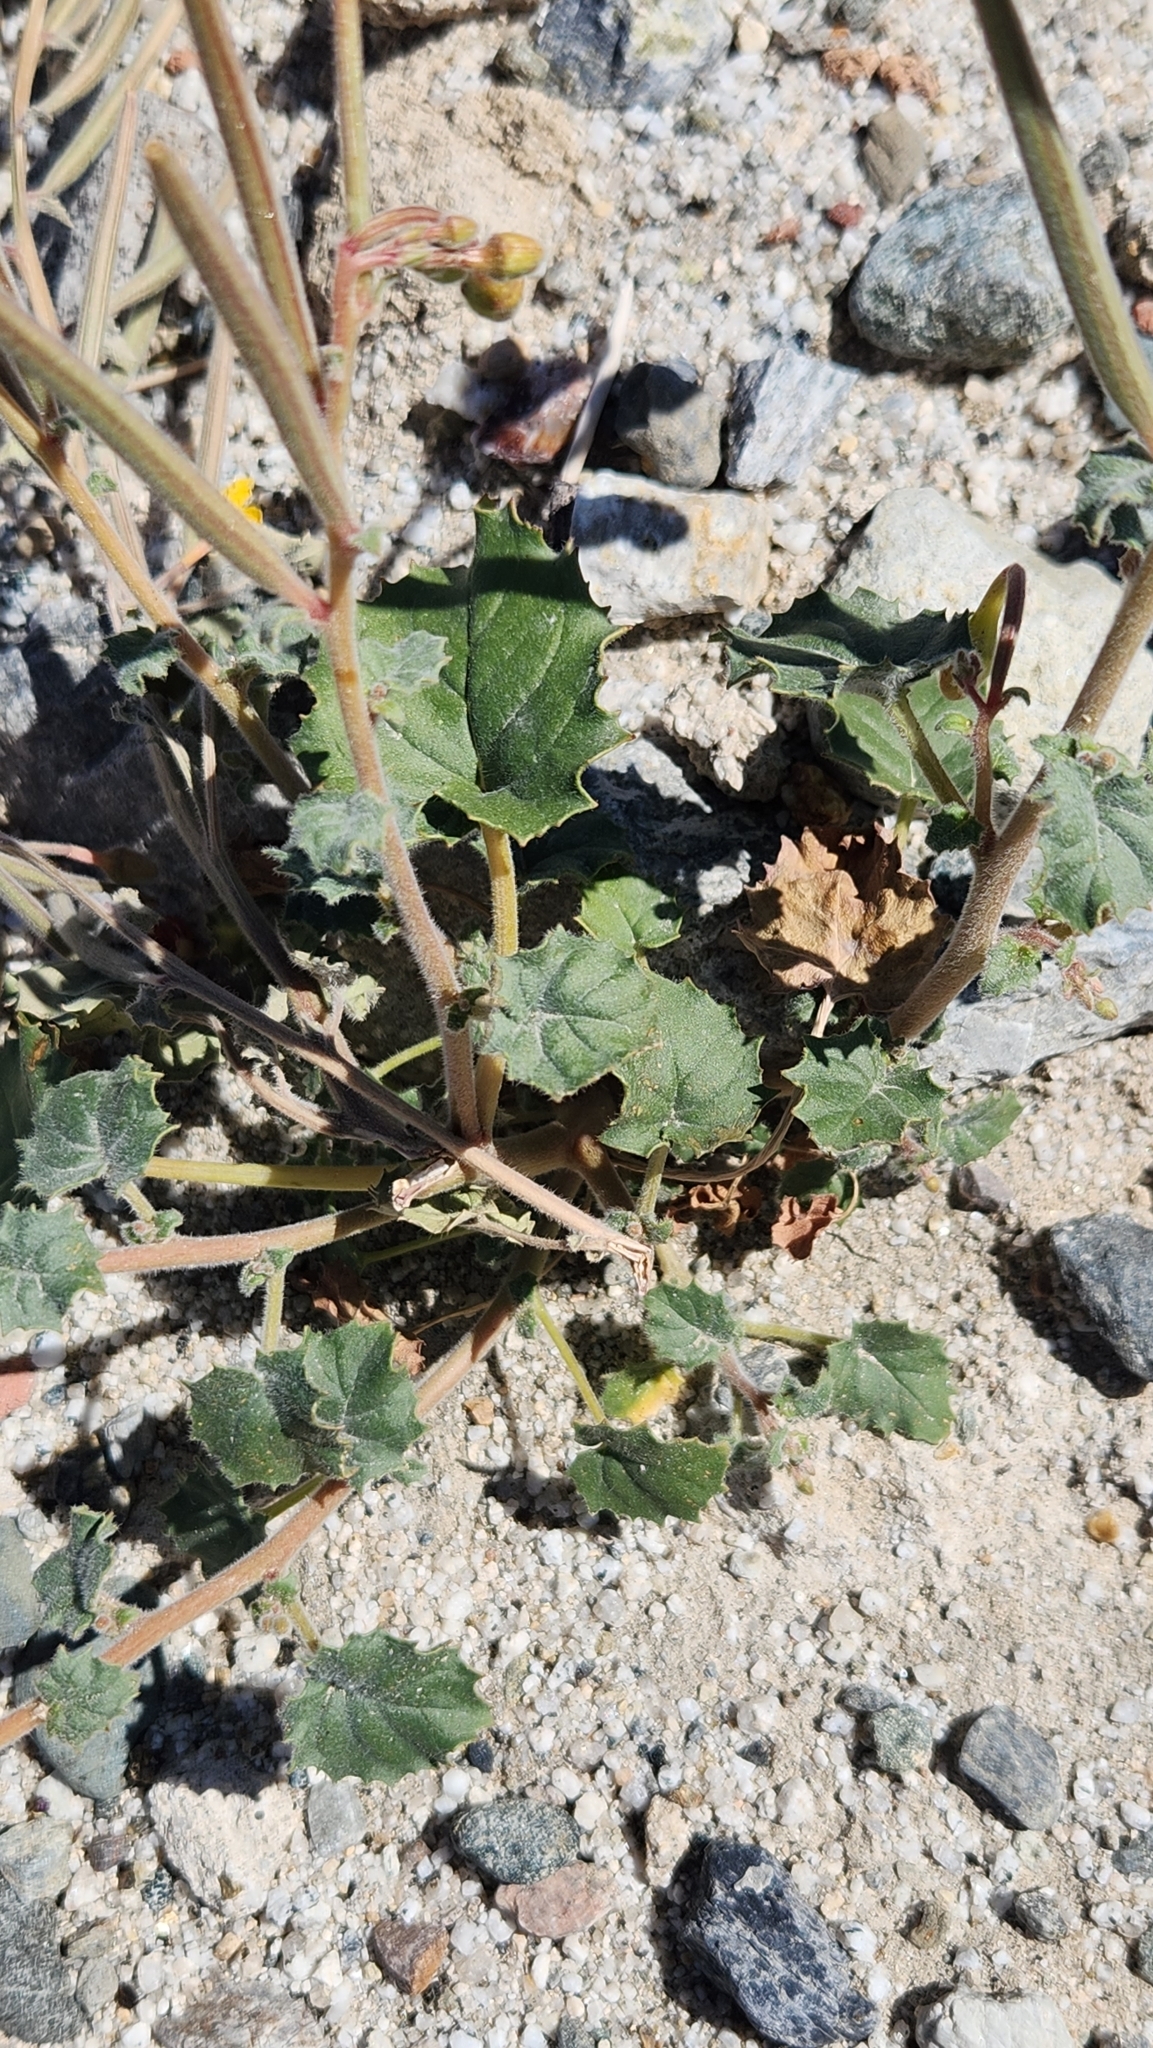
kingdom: Plantae
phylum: Tracheophyta
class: Magnoliopsida
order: Myrtales
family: Onagraceae
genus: Chylismia
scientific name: Chylismia cardiophylla
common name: Heartleaf suncup
